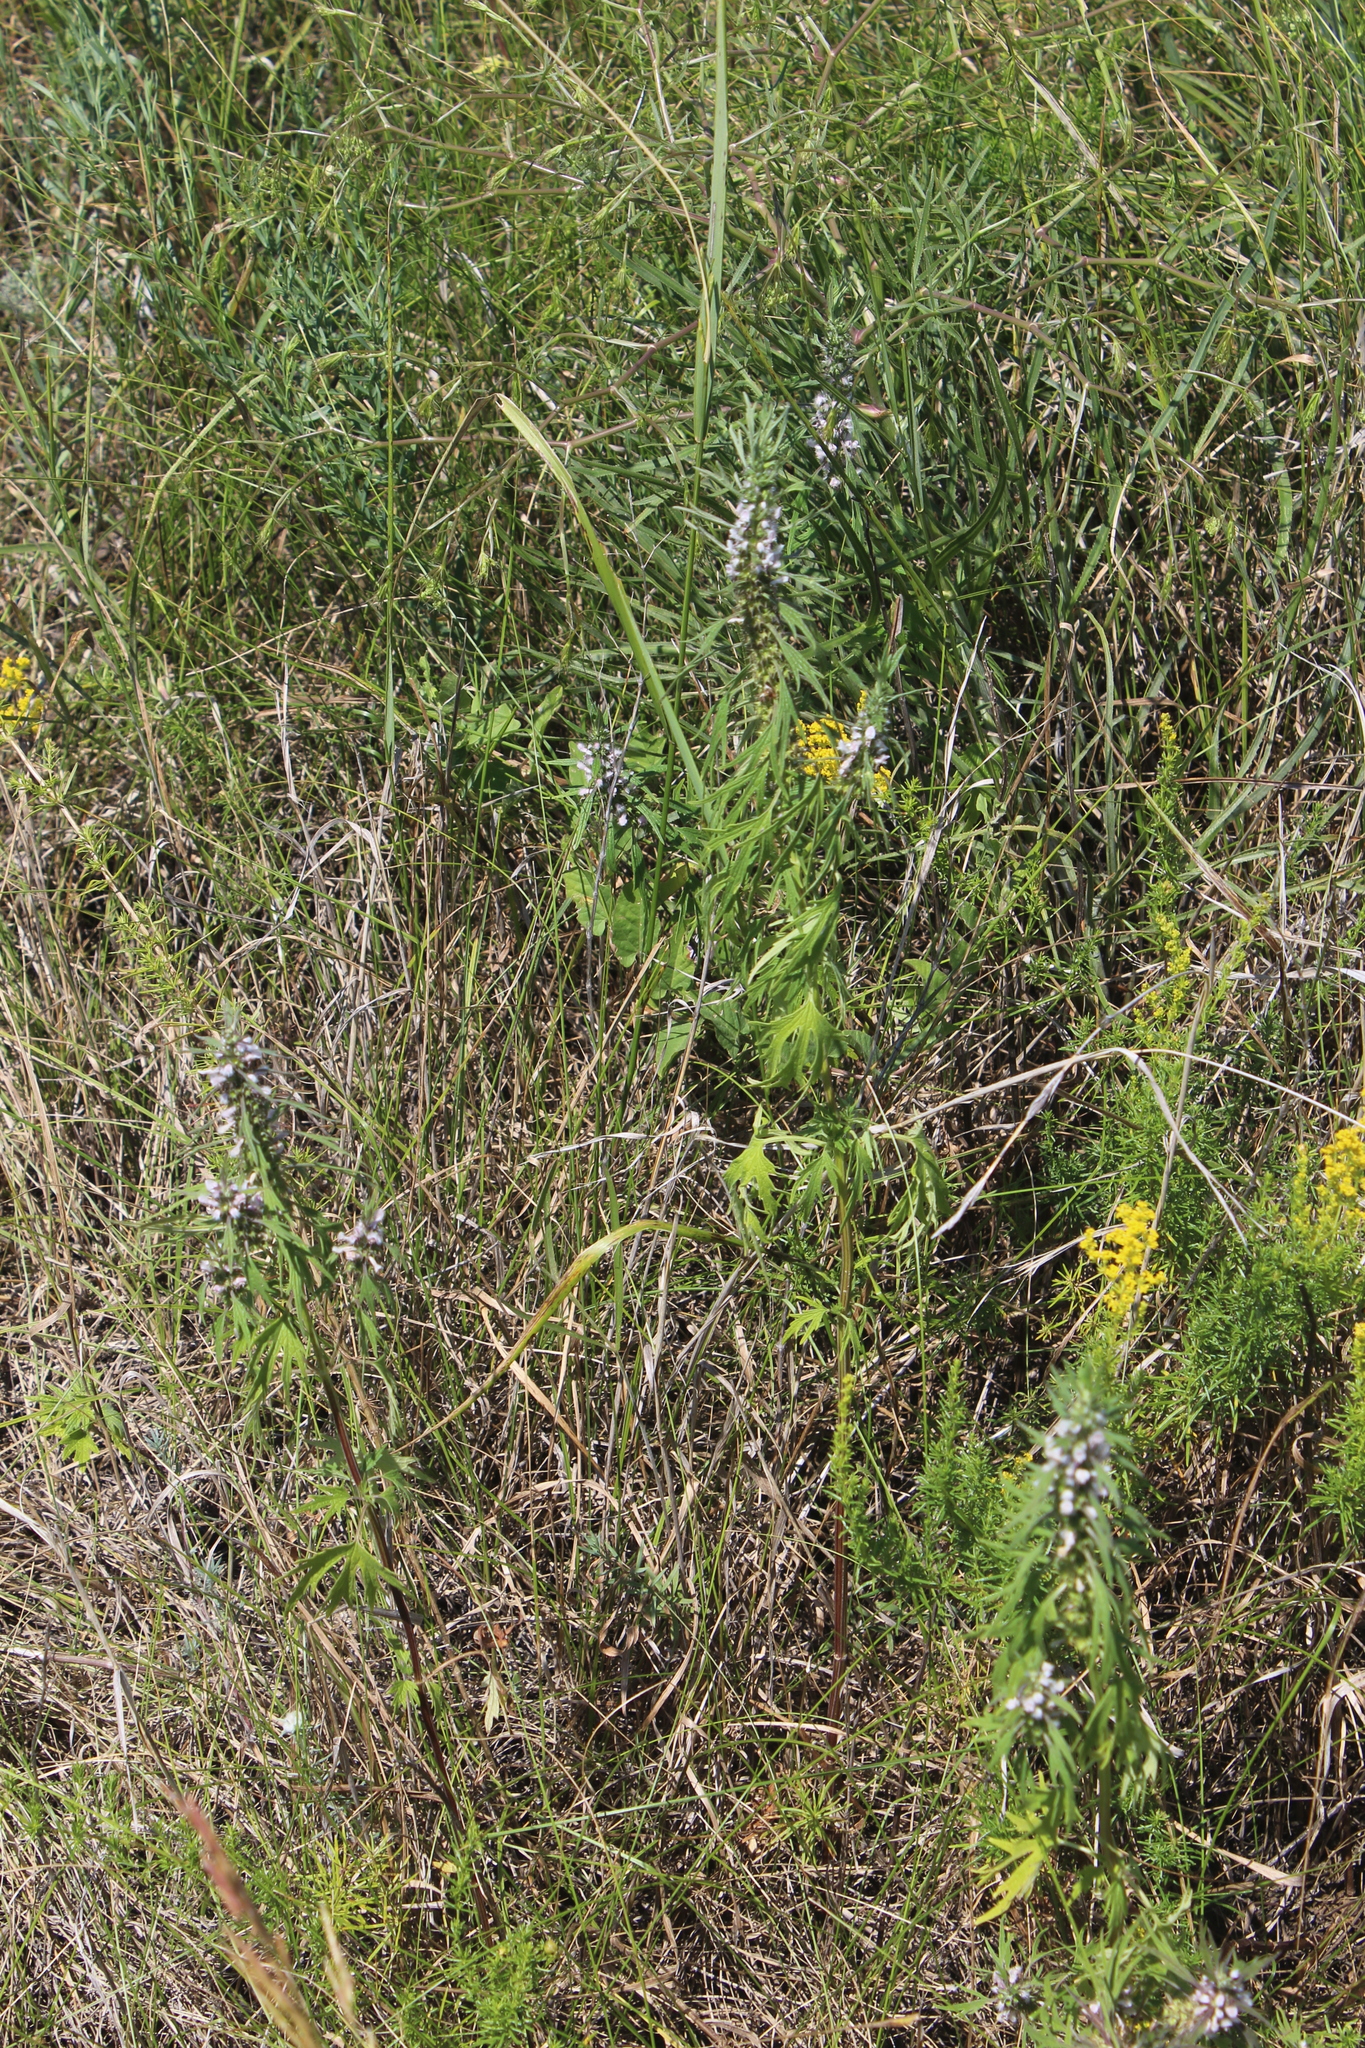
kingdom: Plantae
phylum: Tracheophyta
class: Magnoliopsida
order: Lamiales
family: Lamiaceae
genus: Leonurus
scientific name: Leonurus glaucescens
